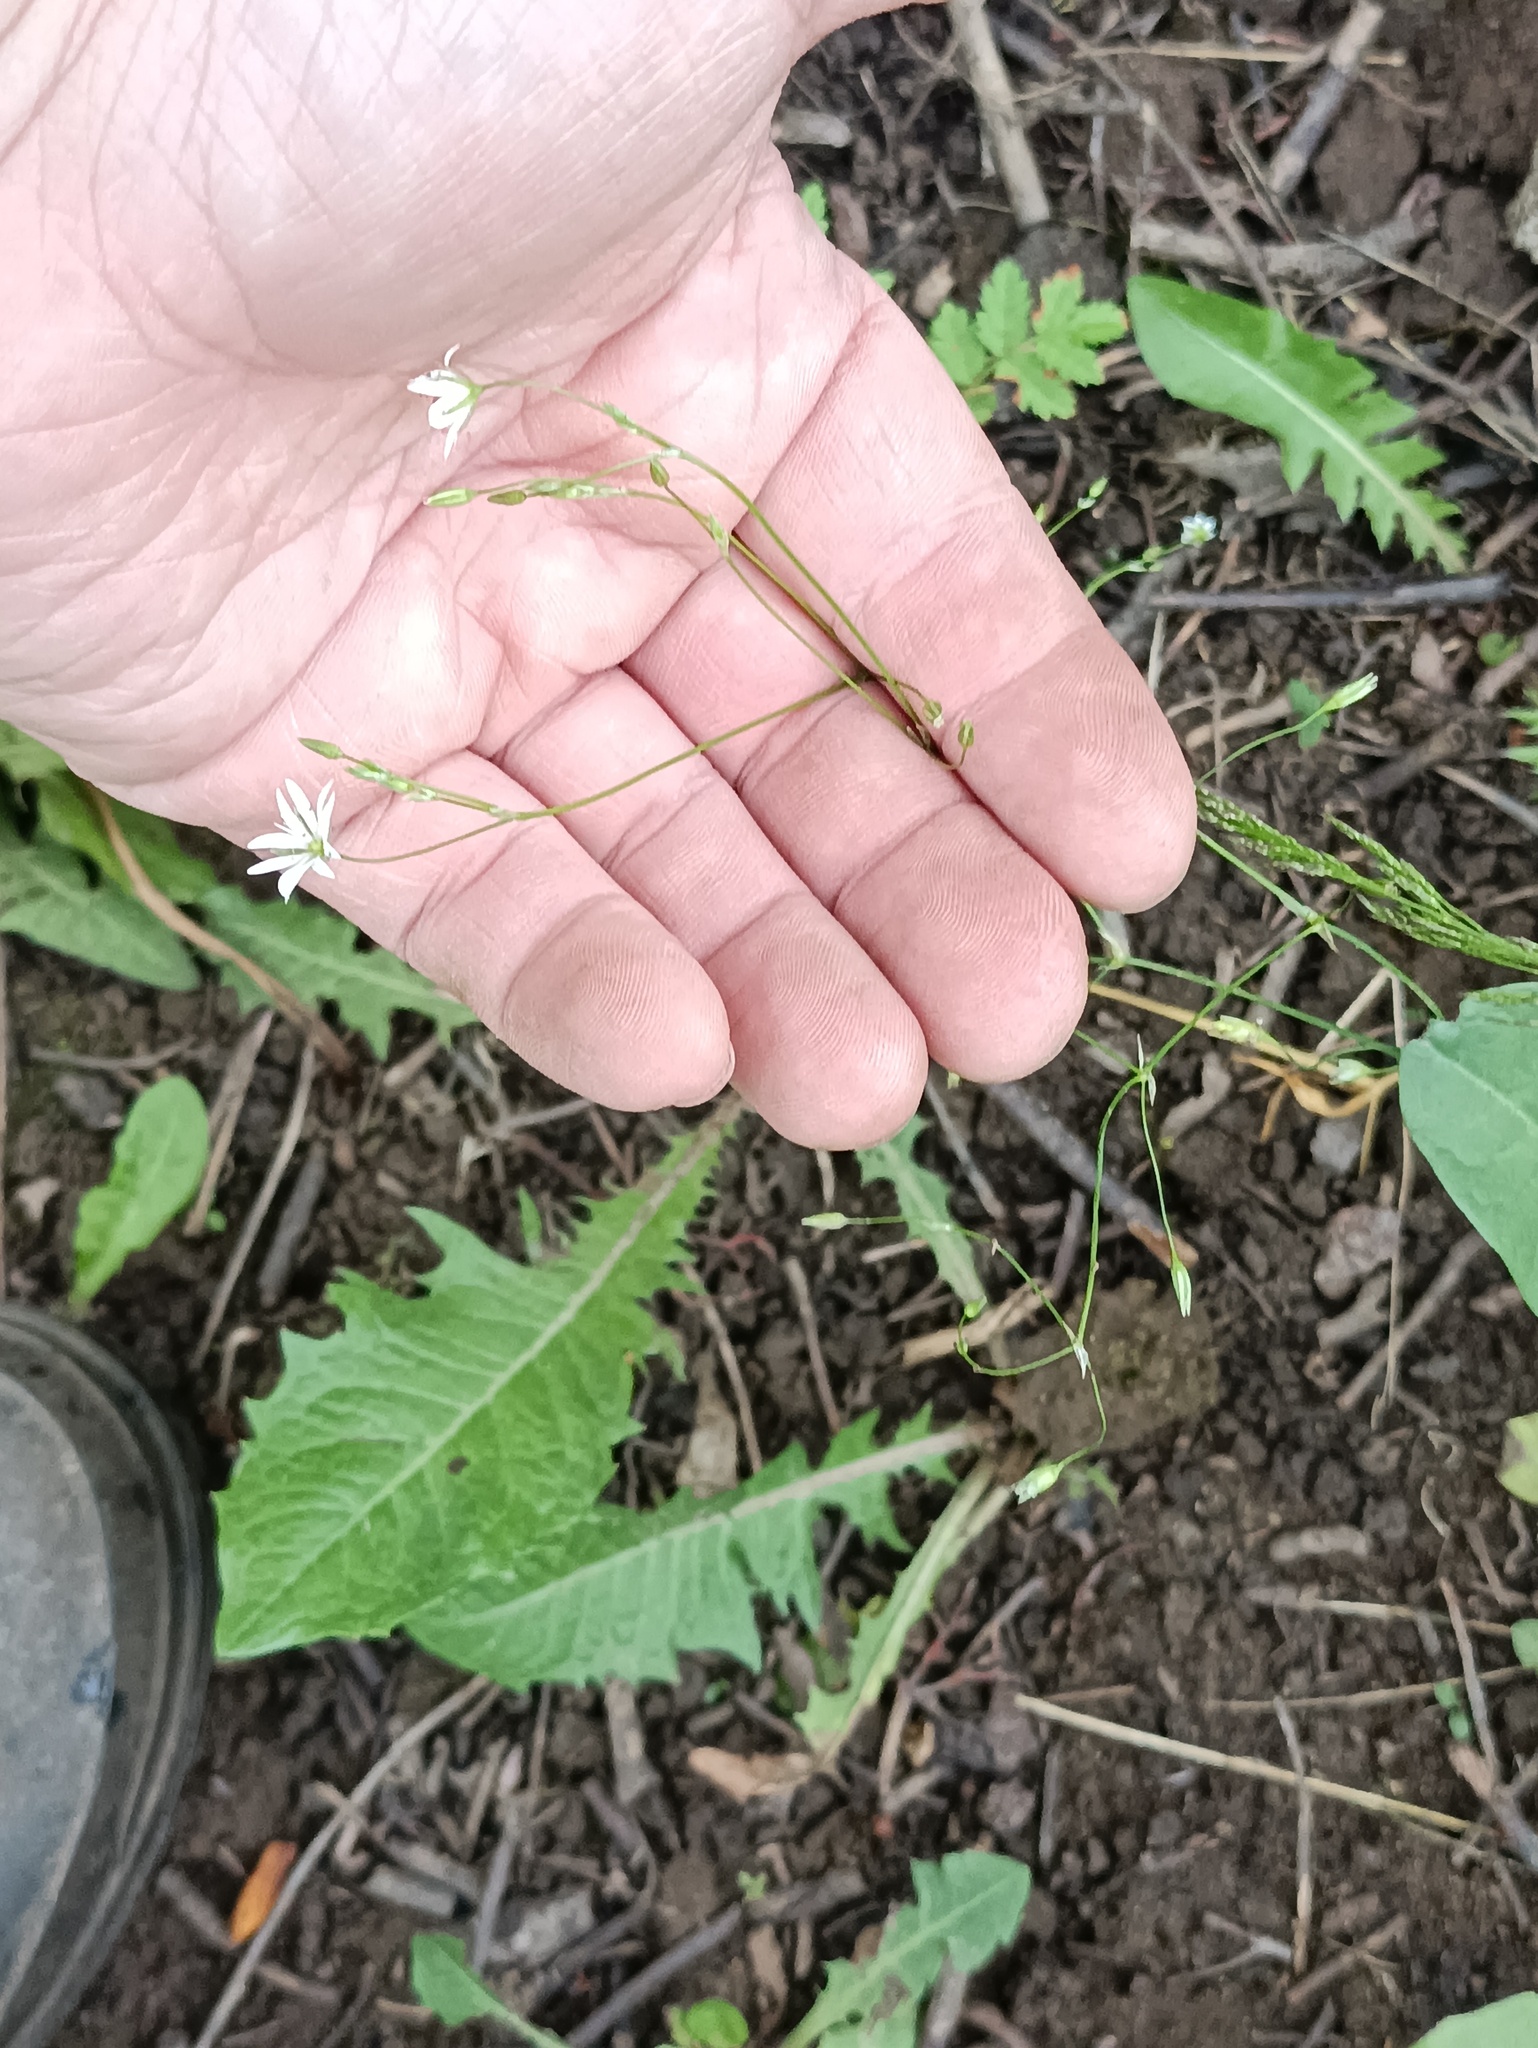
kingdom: Plantae
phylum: Tracheophyta
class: Magnoliopsida
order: Caryophyllales
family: Caryophyllaceae
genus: Stellaria
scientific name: Stellaria graminea
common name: Grass-like starwort
